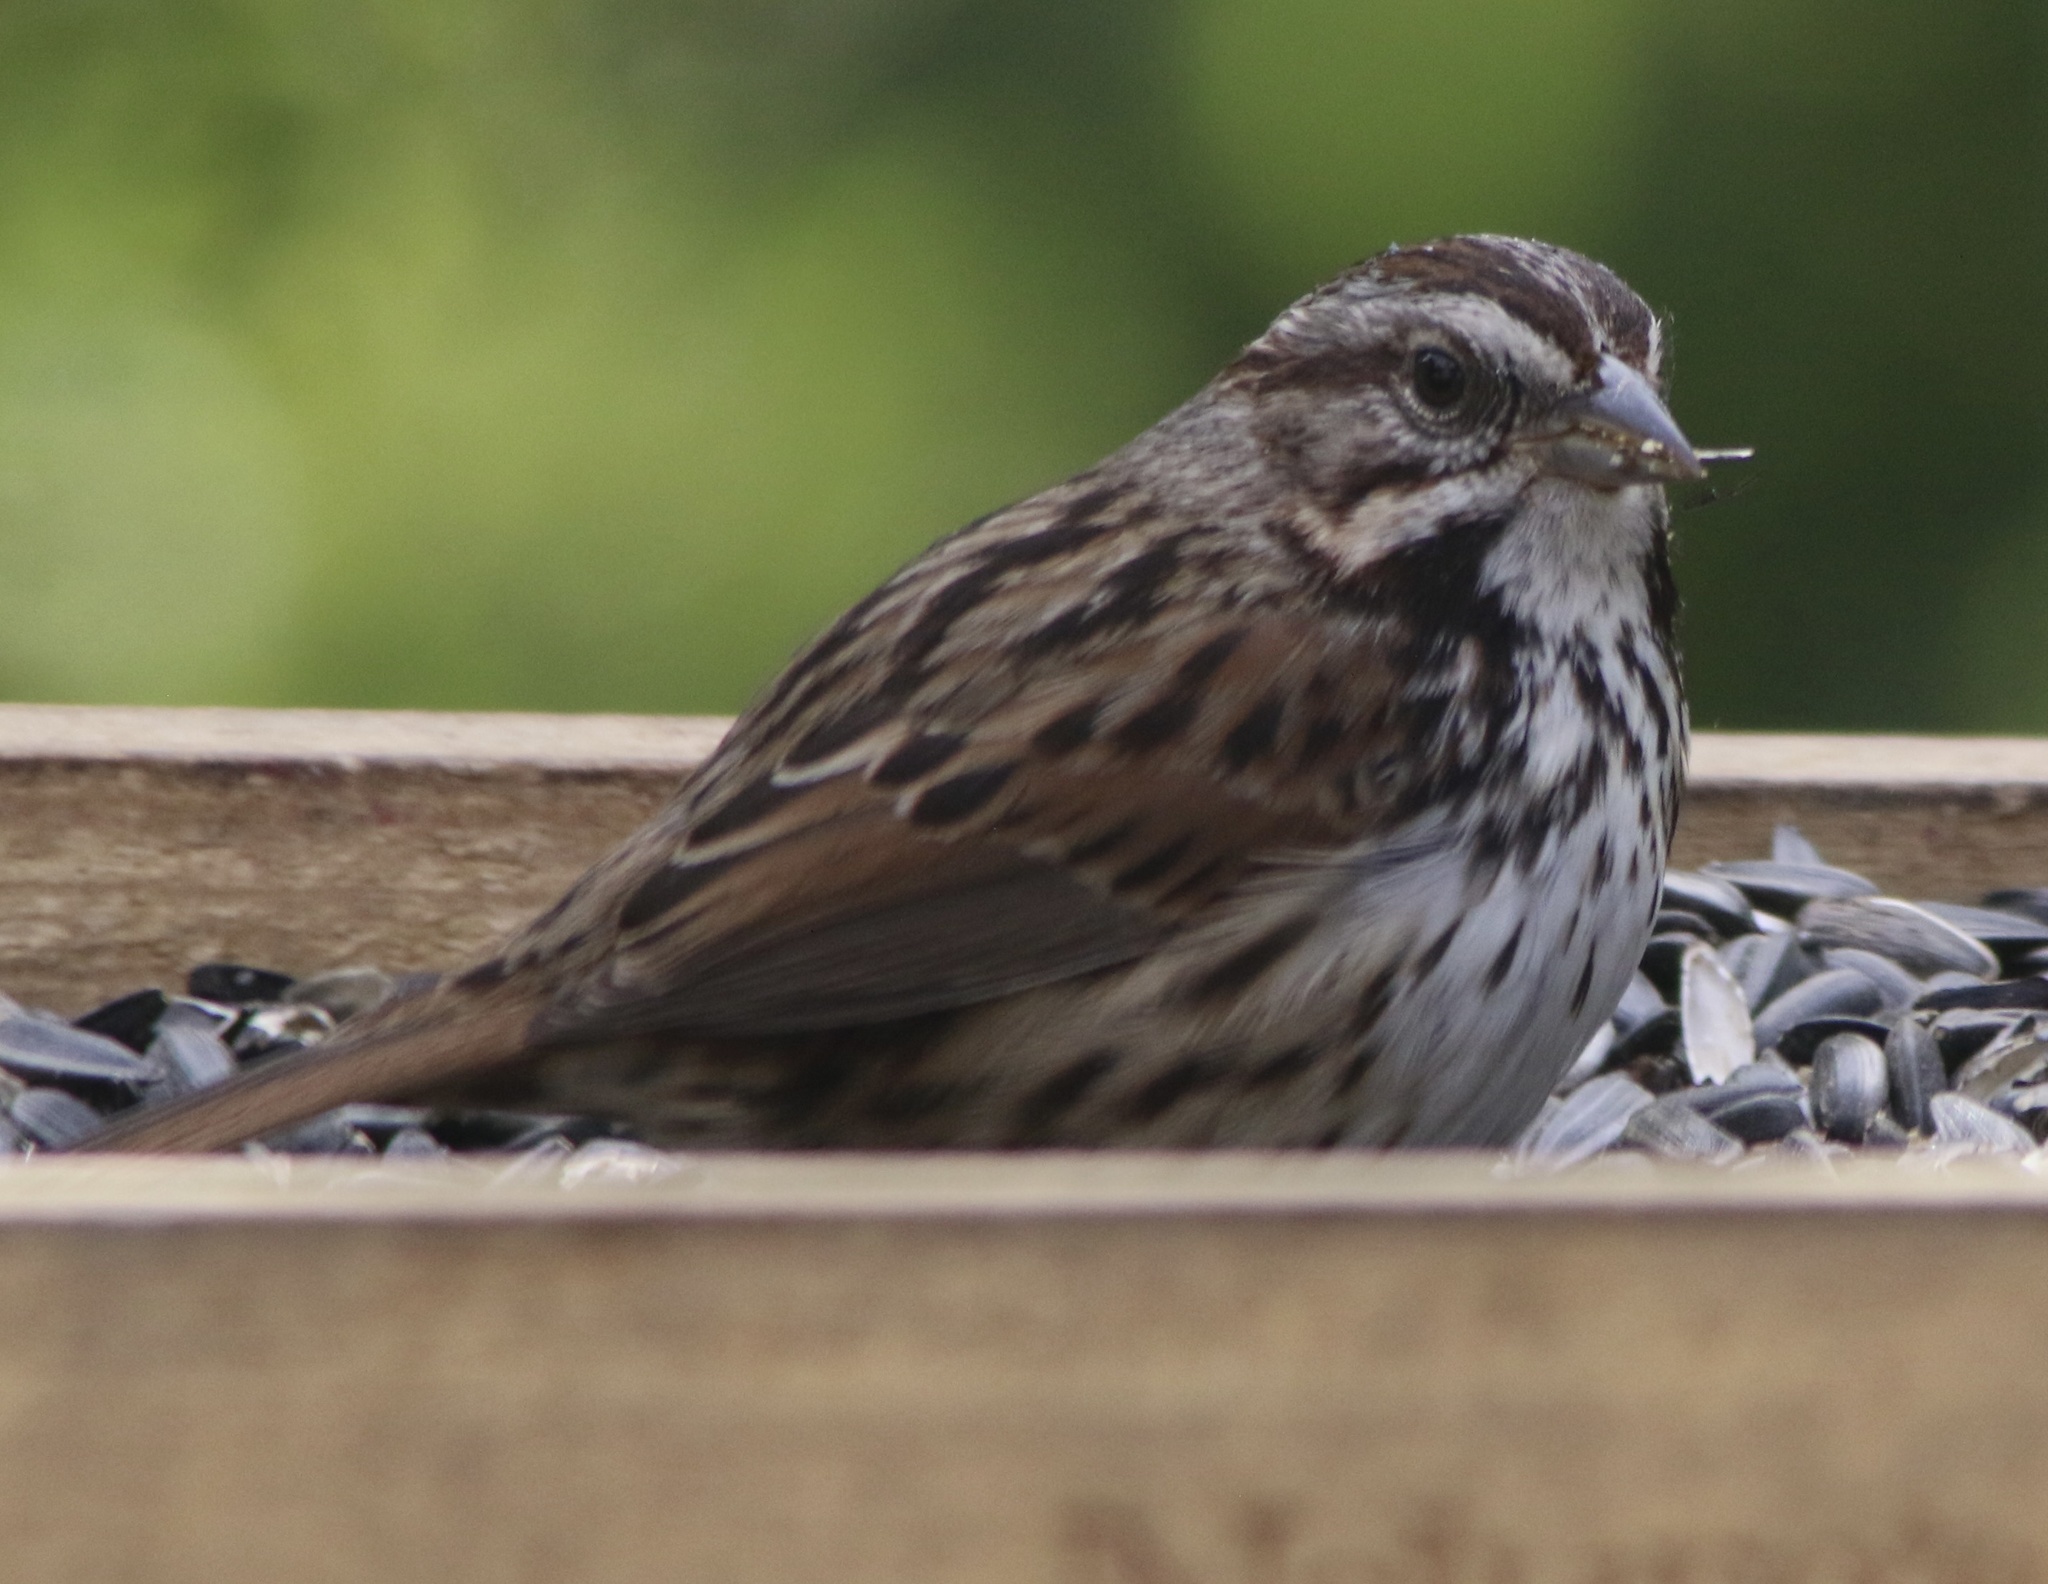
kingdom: Animalia
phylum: Chordata
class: Aves
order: Passeriformes
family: Passerellidae
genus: Melospiza
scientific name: Melospiza melodia
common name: Song sparrow
